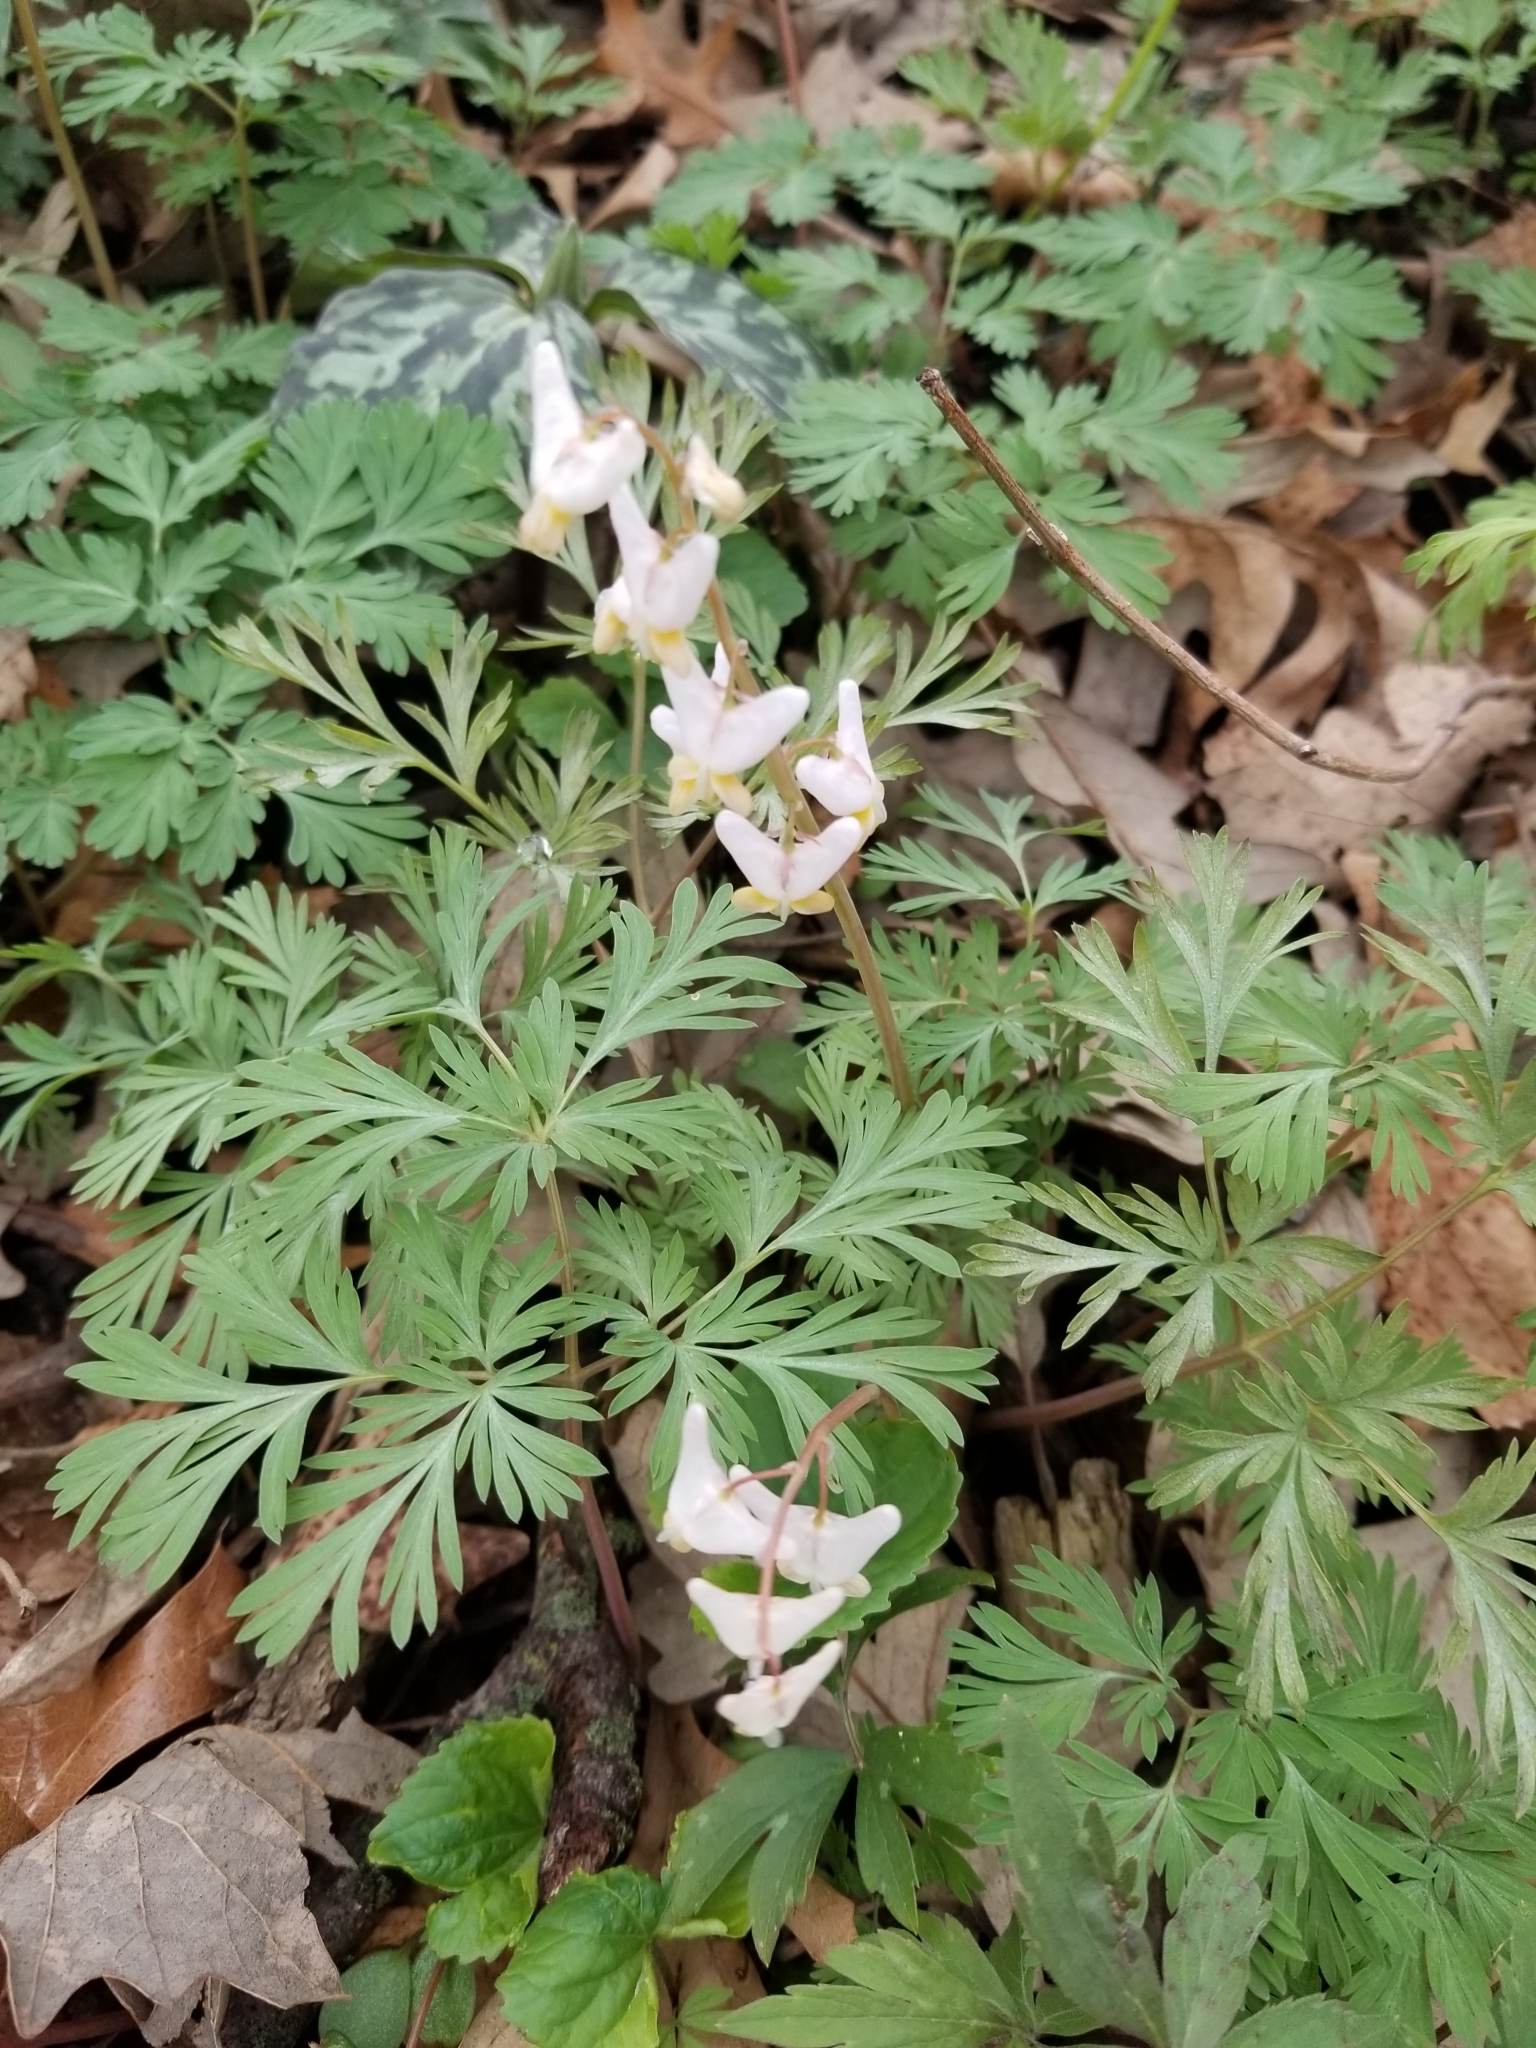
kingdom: Plantae
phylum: Tracheophyta
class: Magnoliopsida
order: Ranunculales
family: Papaveraceae
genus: Dicentra
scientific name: Dicentra cucullaria
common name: Dutchman's breeches
